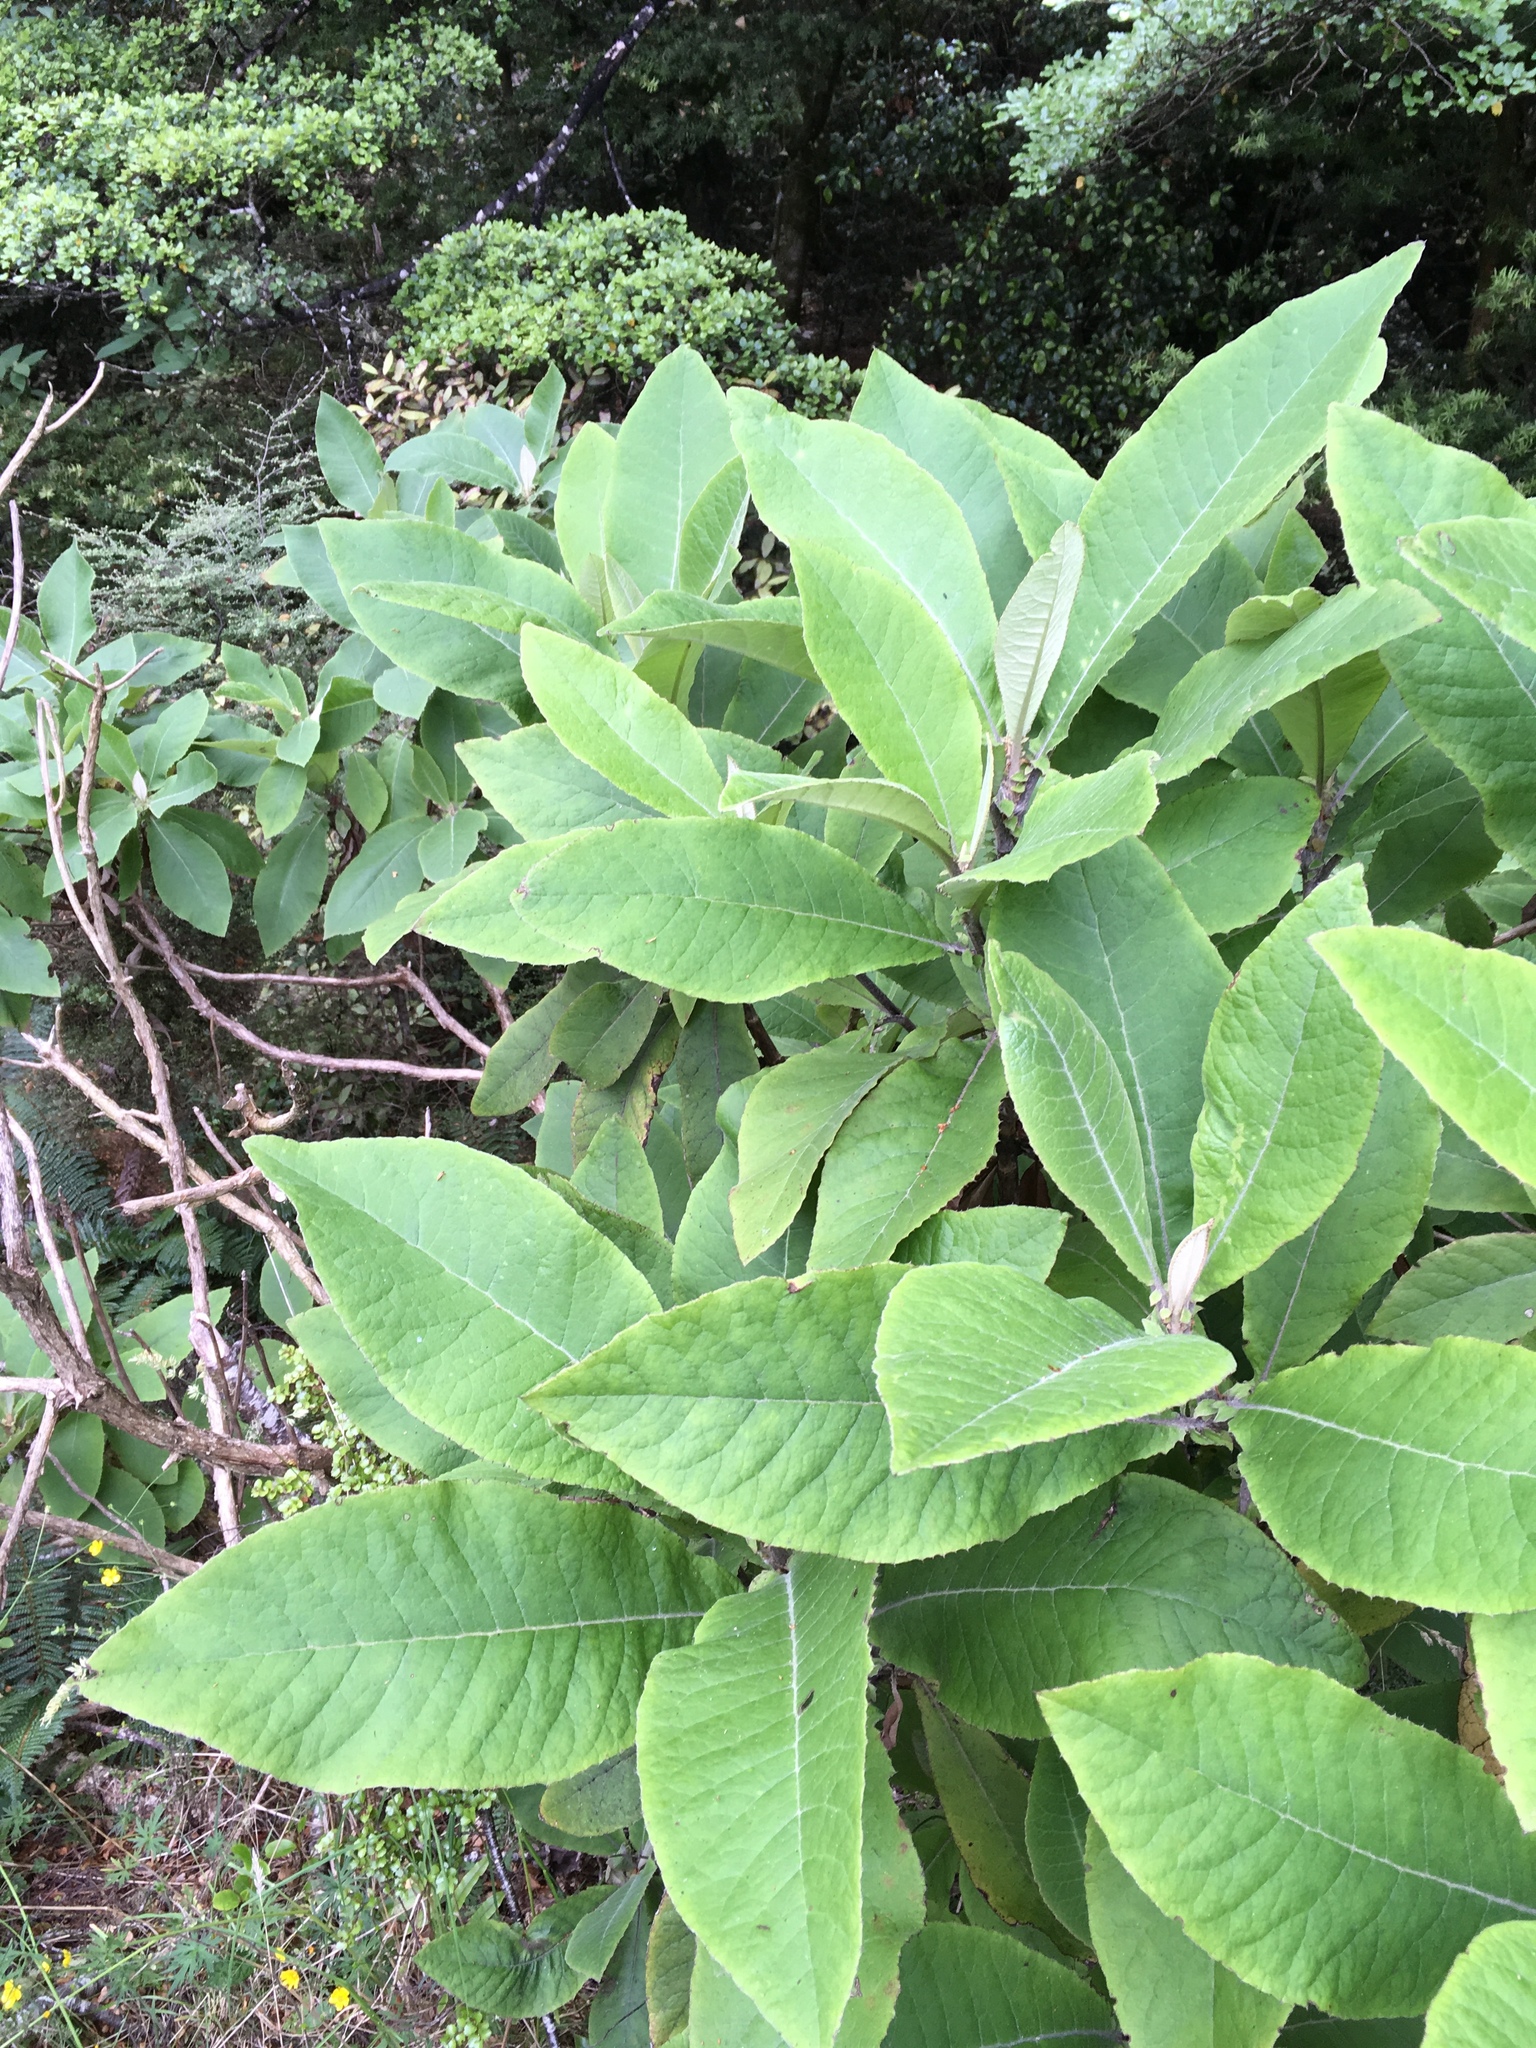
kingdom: Plantae
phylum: Tracheophyta
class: Magnoliopsida
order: Asterales
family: Asteraceae
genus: Brachyglottis
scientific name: Brachyglottis hectorii
